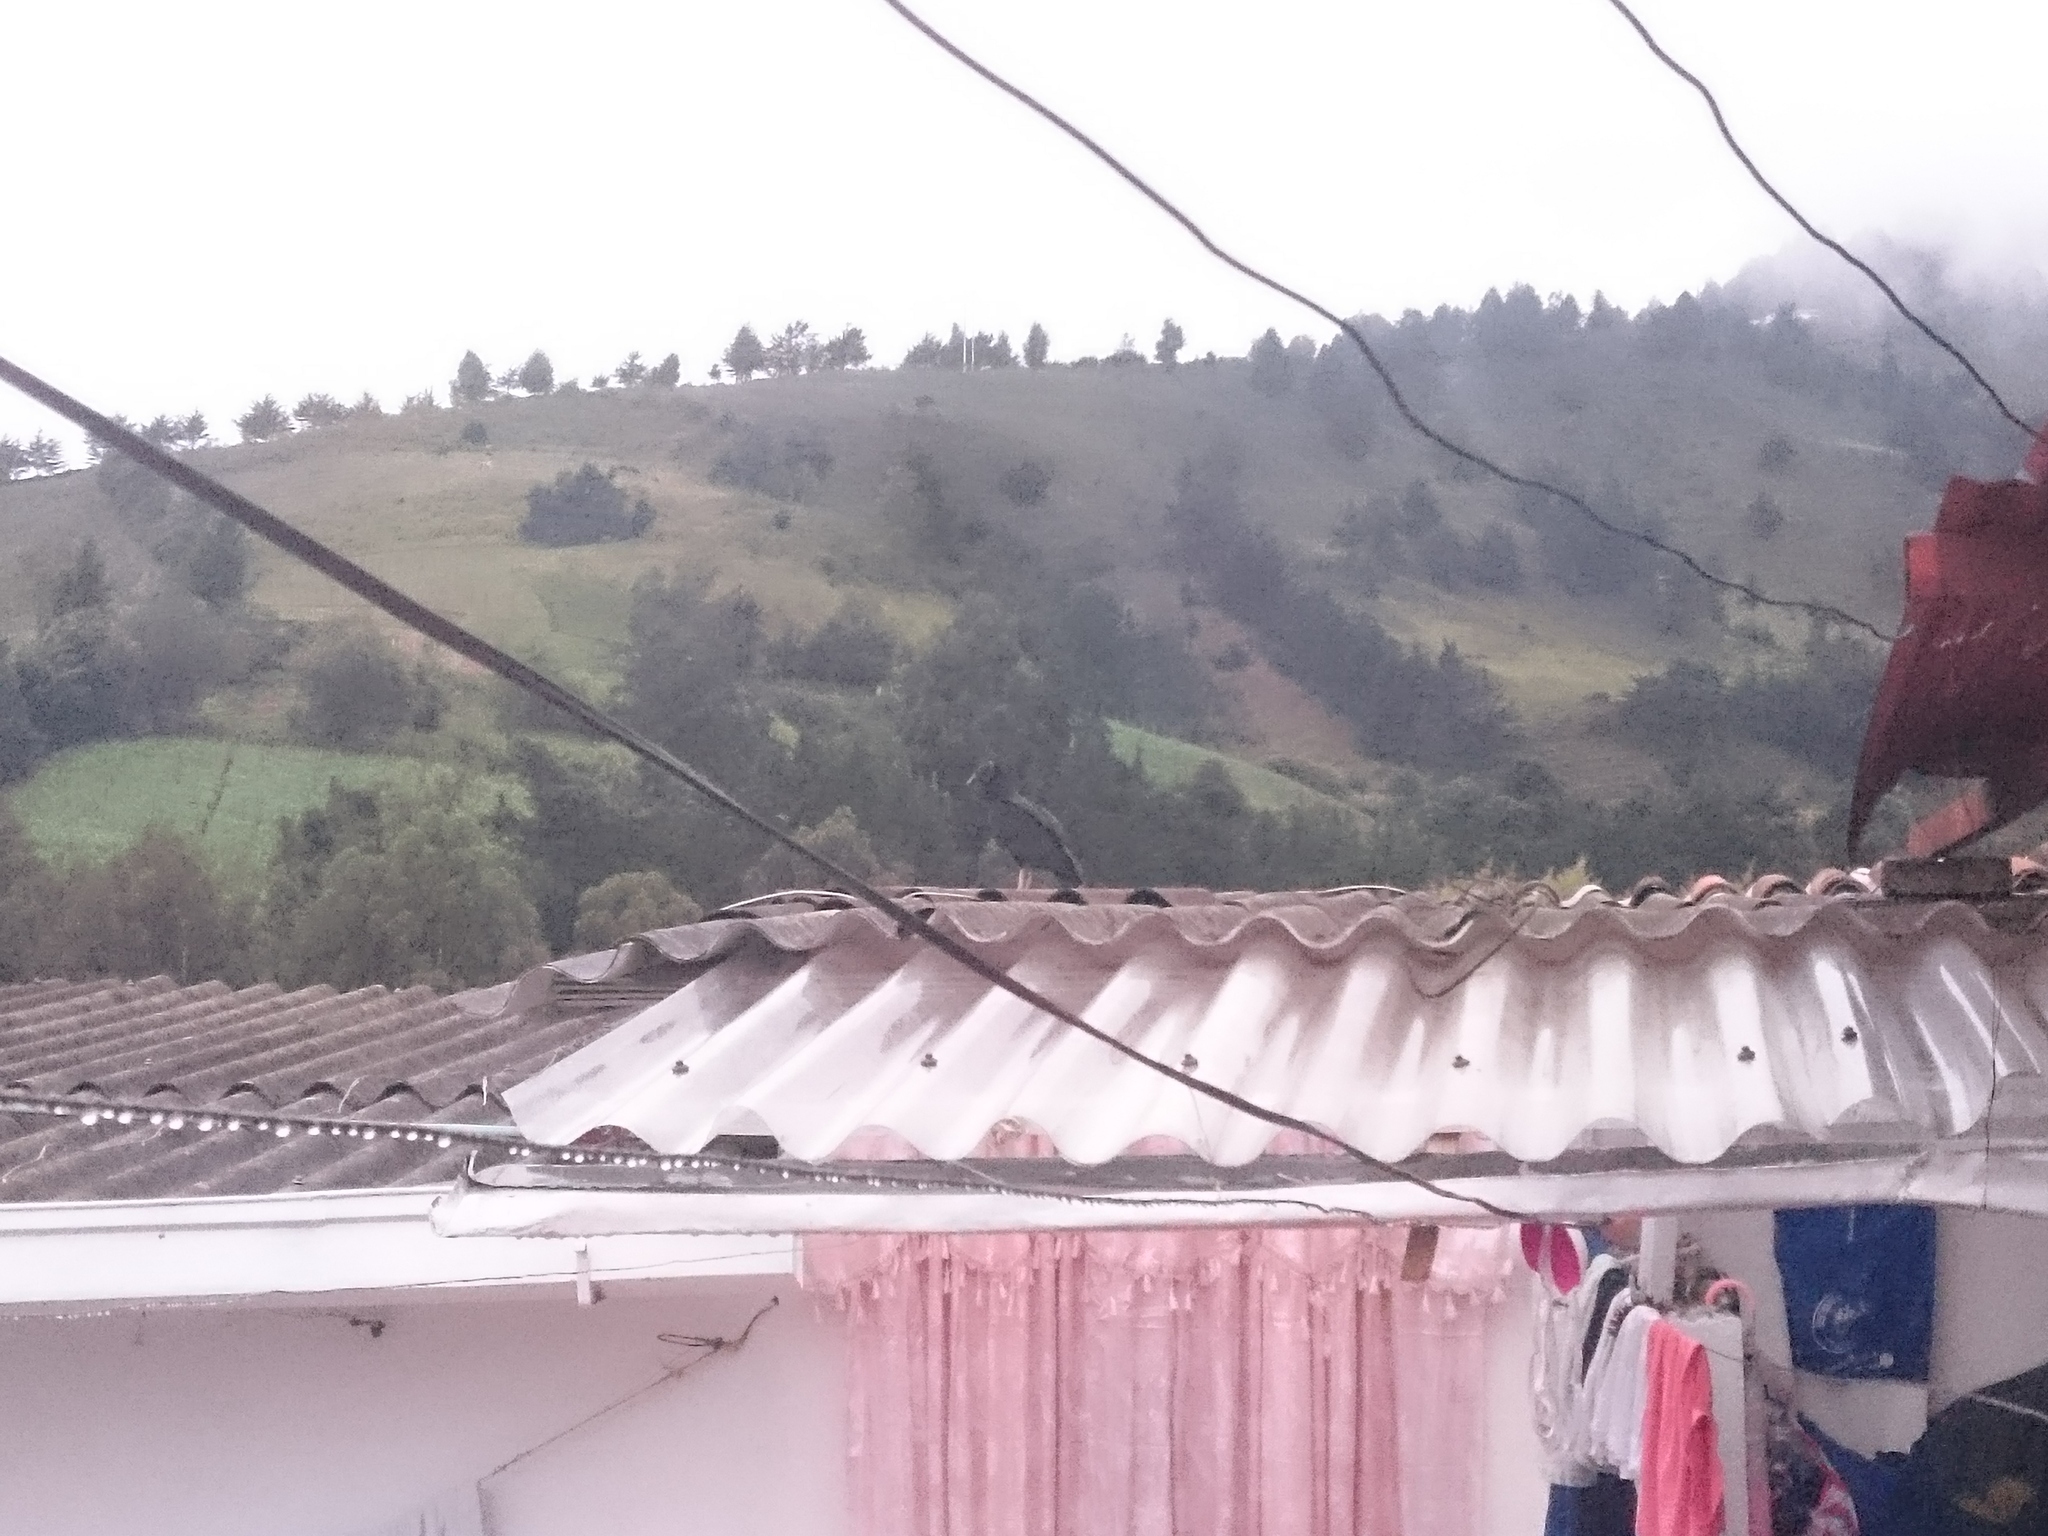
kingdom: Animalia
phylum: Chordata
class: Aves
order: Accipitriformes
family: Cathartidae
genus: Coragyps
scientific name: Coragyps atratus
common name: Black vulture
